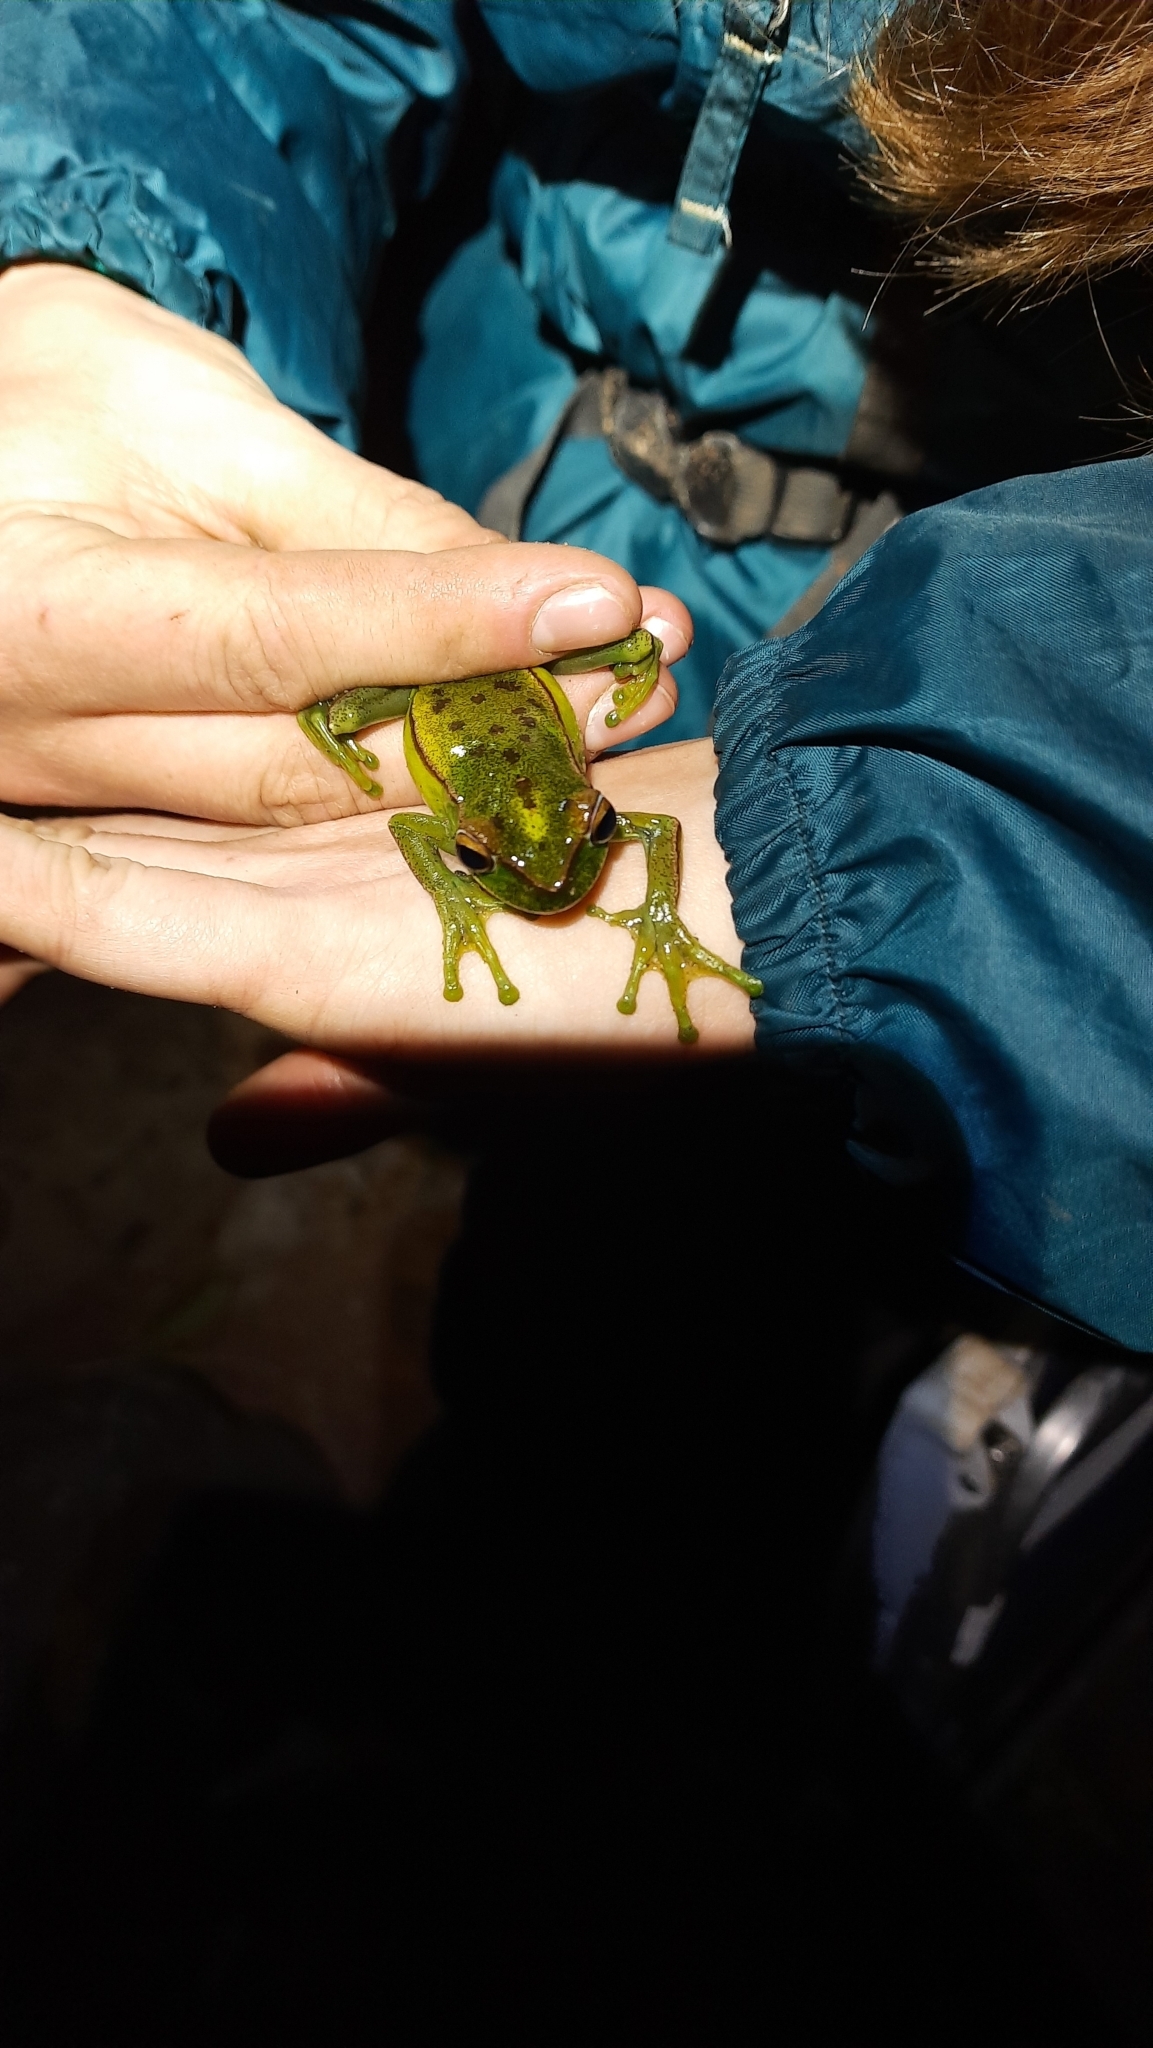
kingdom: Animalia
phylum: Chordata
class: Amphibia
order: Anura
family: Hylidae
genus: Boana
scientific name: Boana marginata
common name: Mundo novo treefrog
